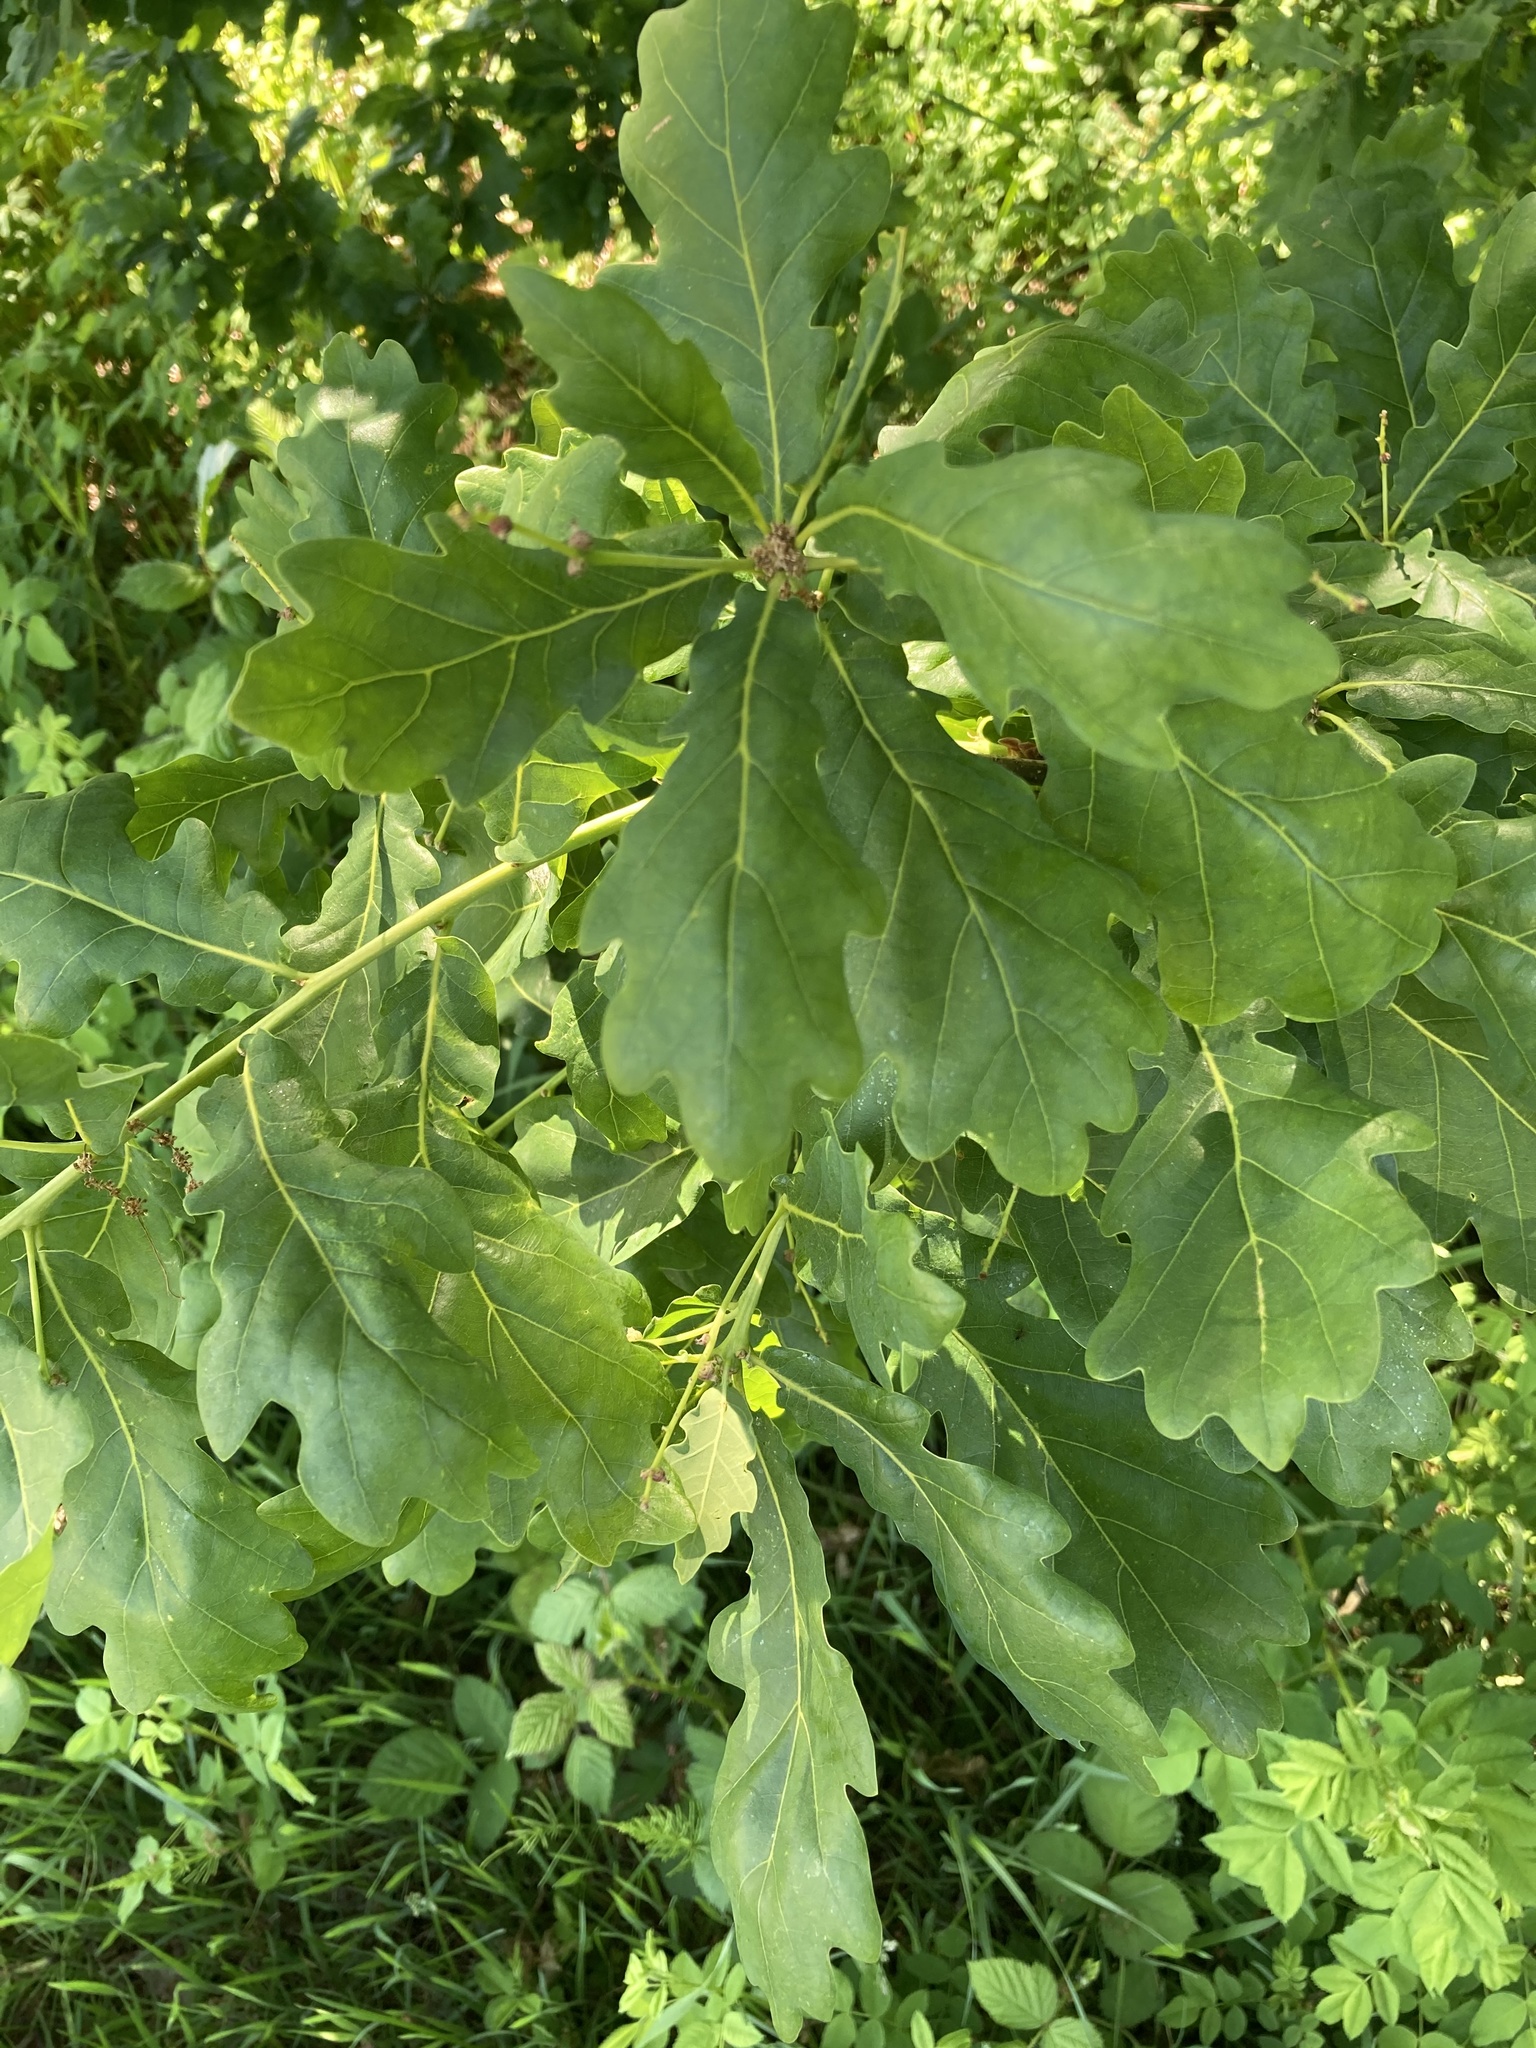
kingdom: Plantae
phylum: Tracheophyta
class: Magnoliopsida
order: Fagales
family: Fagaceae
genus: Quercus
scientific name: Quercus robur
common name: Pedunculate oak
